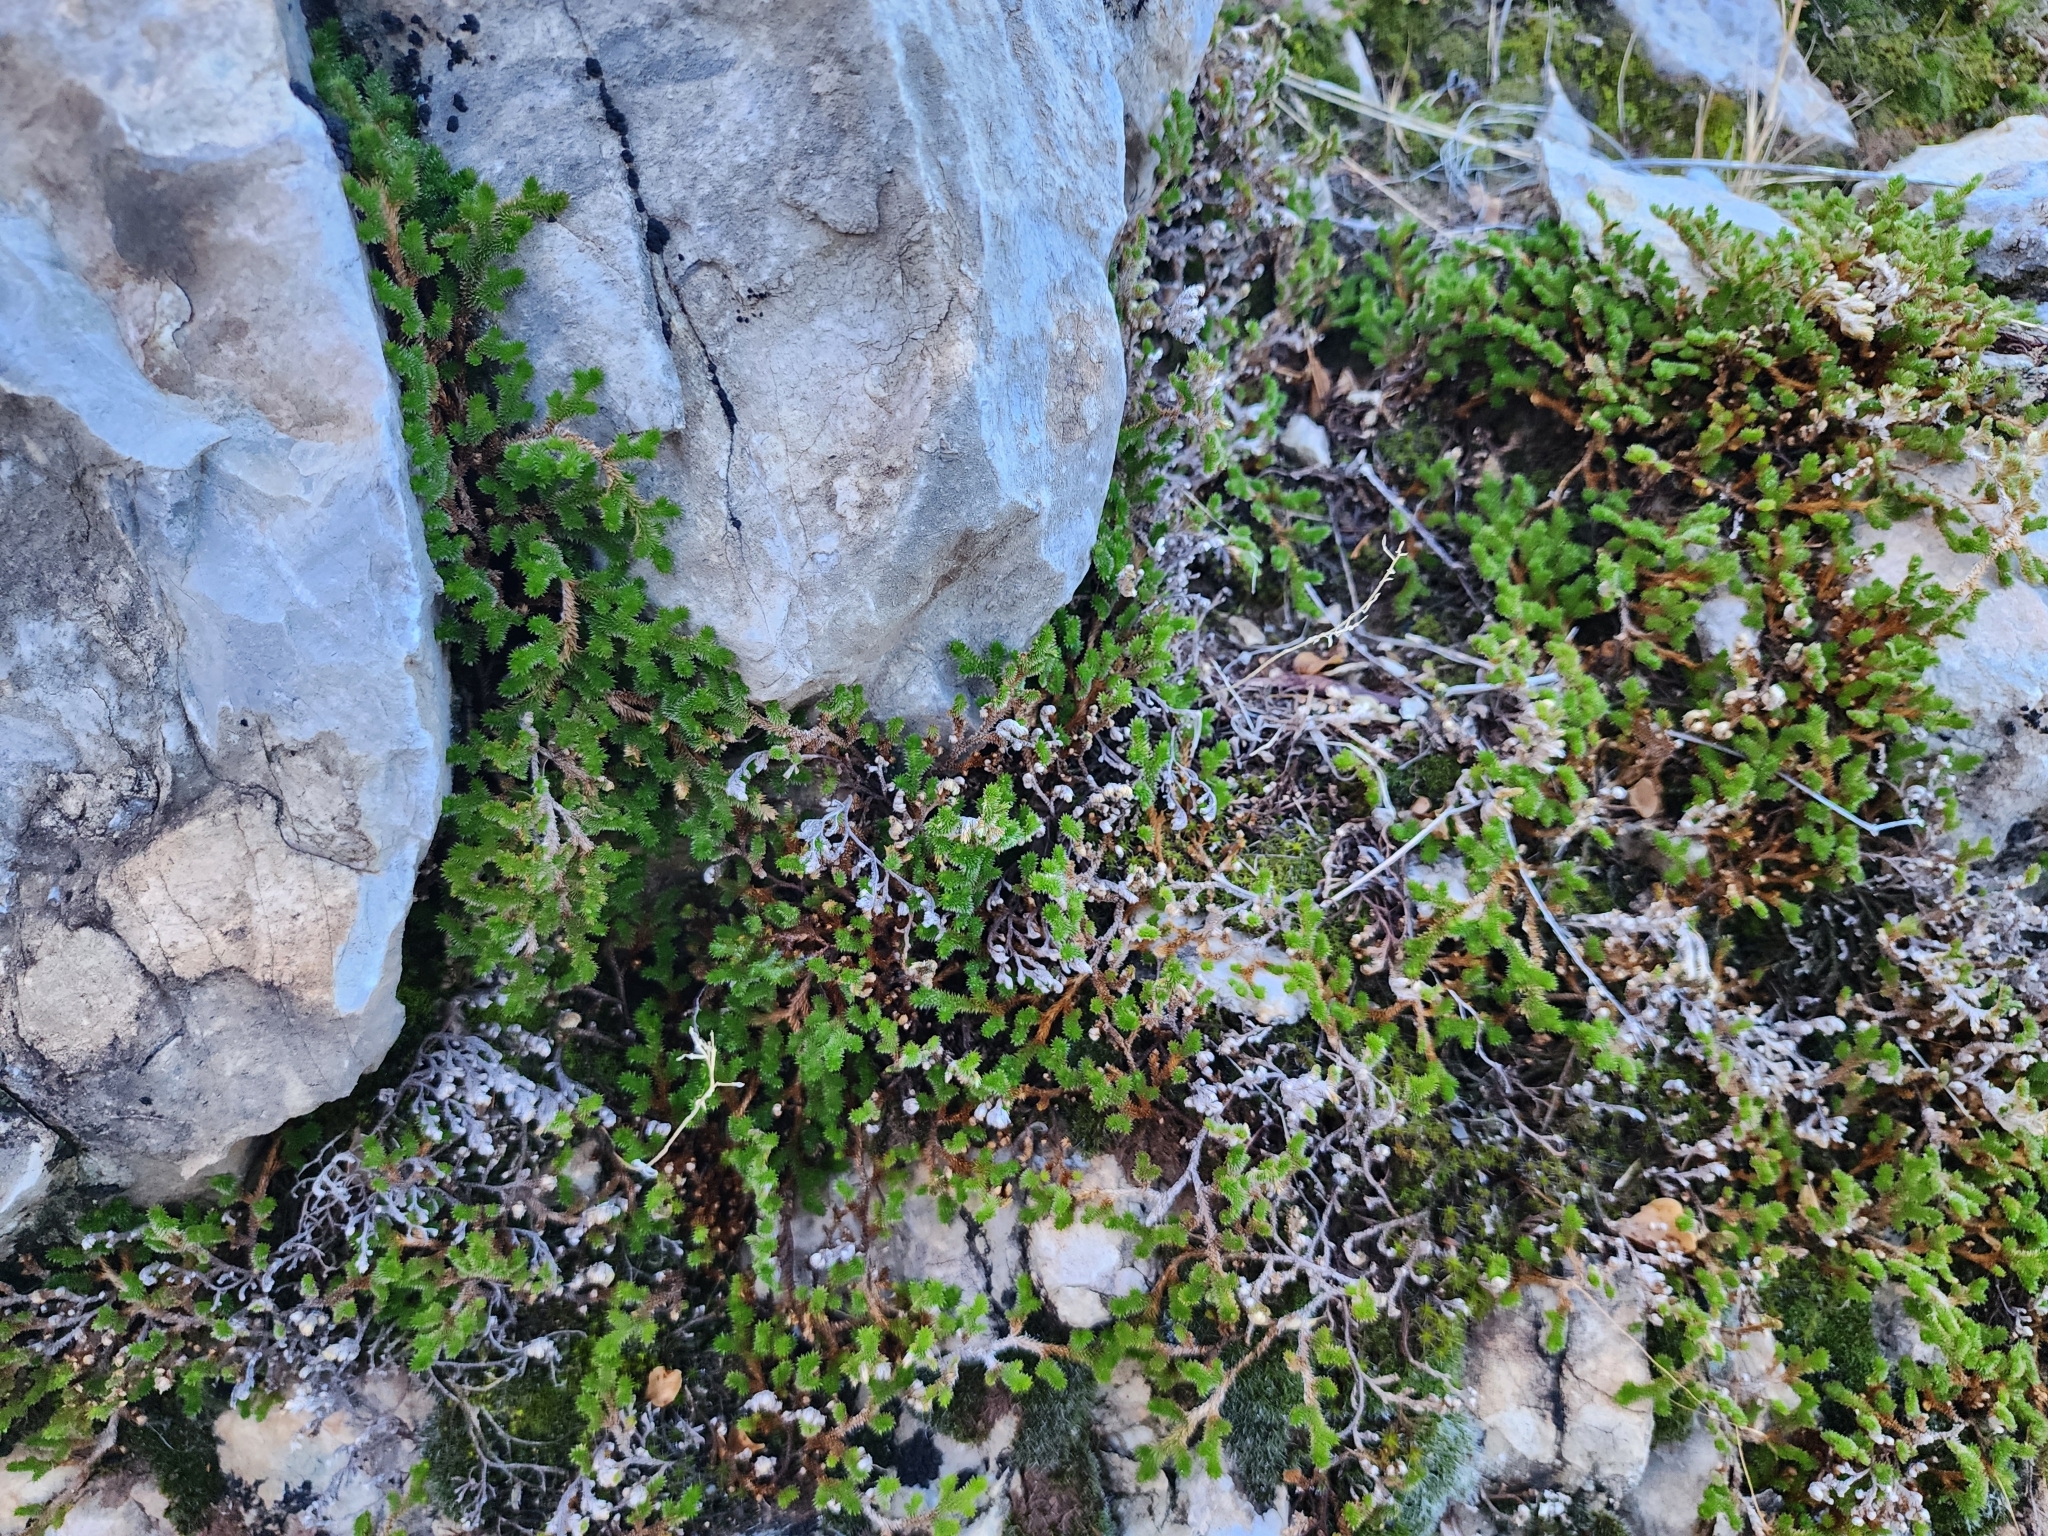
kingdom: Plantae
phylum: Tracheophyta
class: Lycopodiopsida
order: Selaginellales
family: Selaginellaceae
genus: Selaginella
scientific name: Selaginella arizonica
